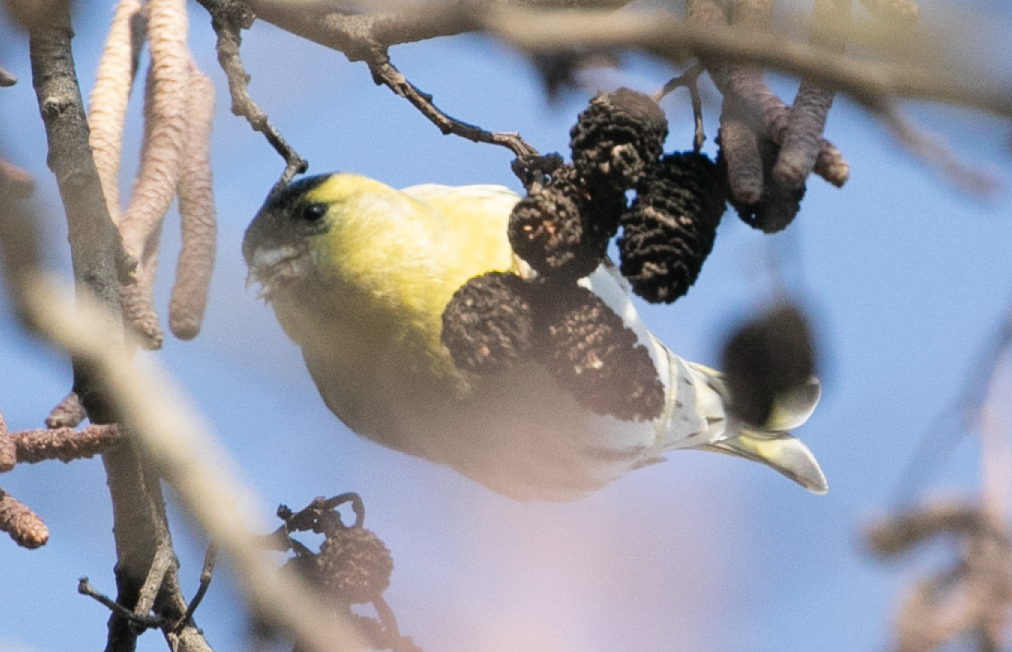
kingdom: Animalia
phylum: Chordata
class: Aves
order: Passeriformes
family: Fringillidae
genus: Spinus
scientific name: Spinus spinus
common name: Eurasian siskin
